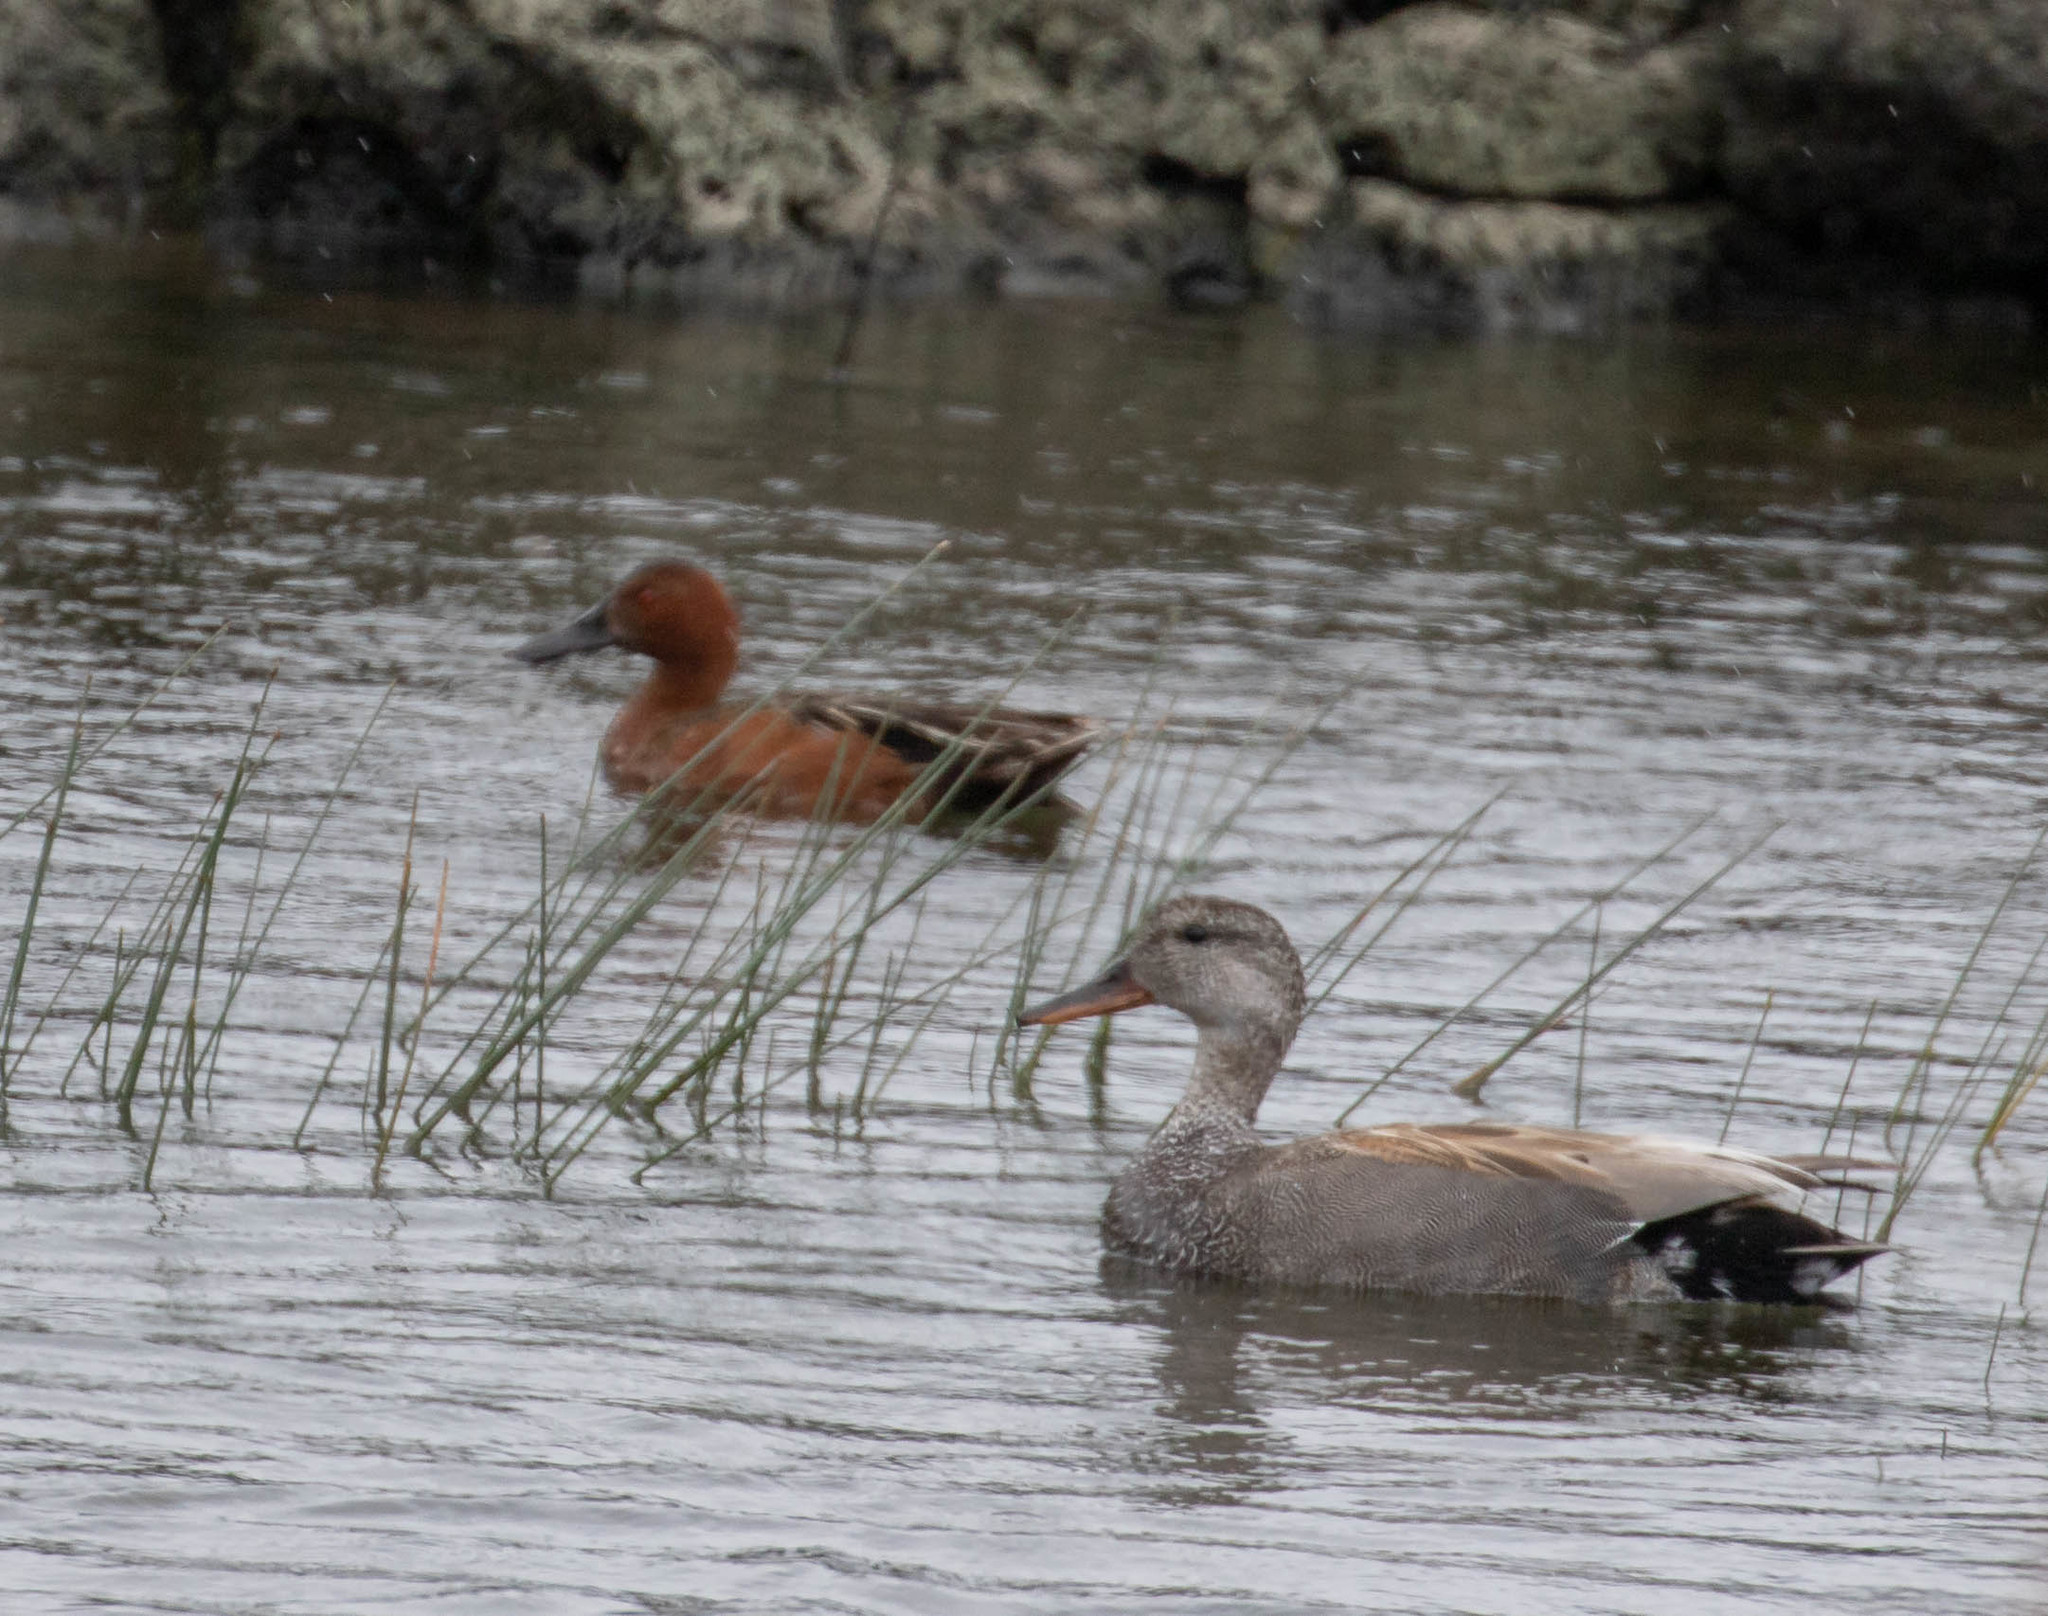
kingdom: Animalia
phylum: Chordata
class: Aves
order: Anseriformes
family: Anatidae
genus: Spatula
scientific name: Spatula cyanoptera
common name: Cinnamon teal
